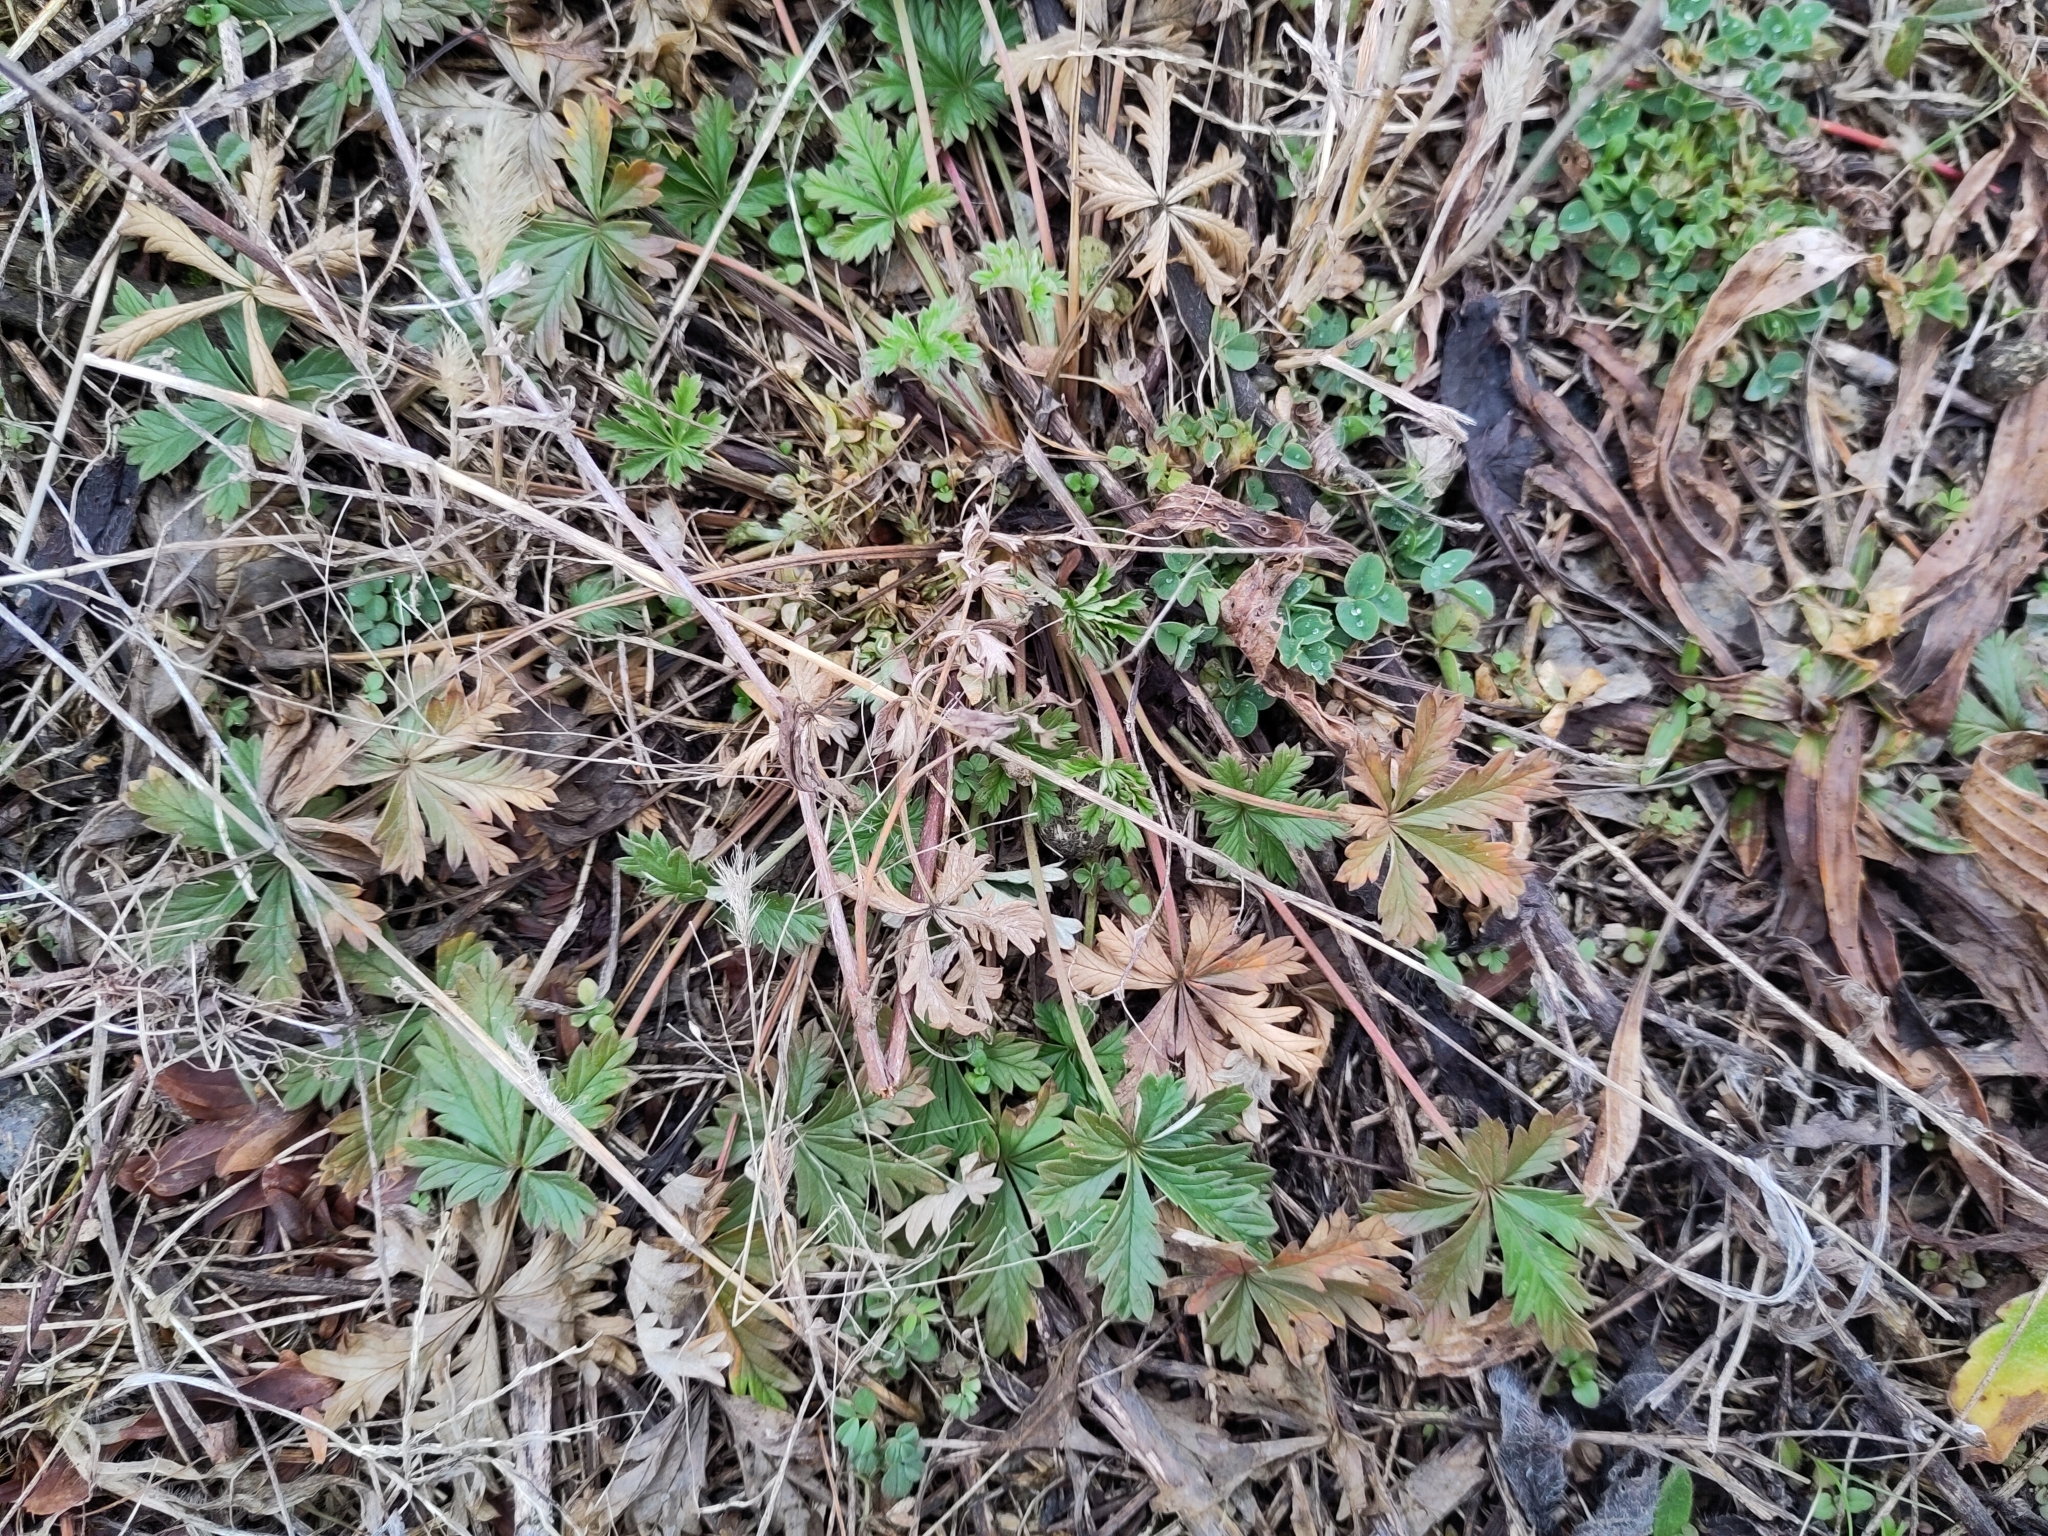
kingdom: Plantae
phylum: Tracheophyta
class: Magnoliopsida
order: Rosales
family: Rosaceae
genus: Potentilla
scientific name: Potentilla argentea
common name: Hoary cinquefoil
